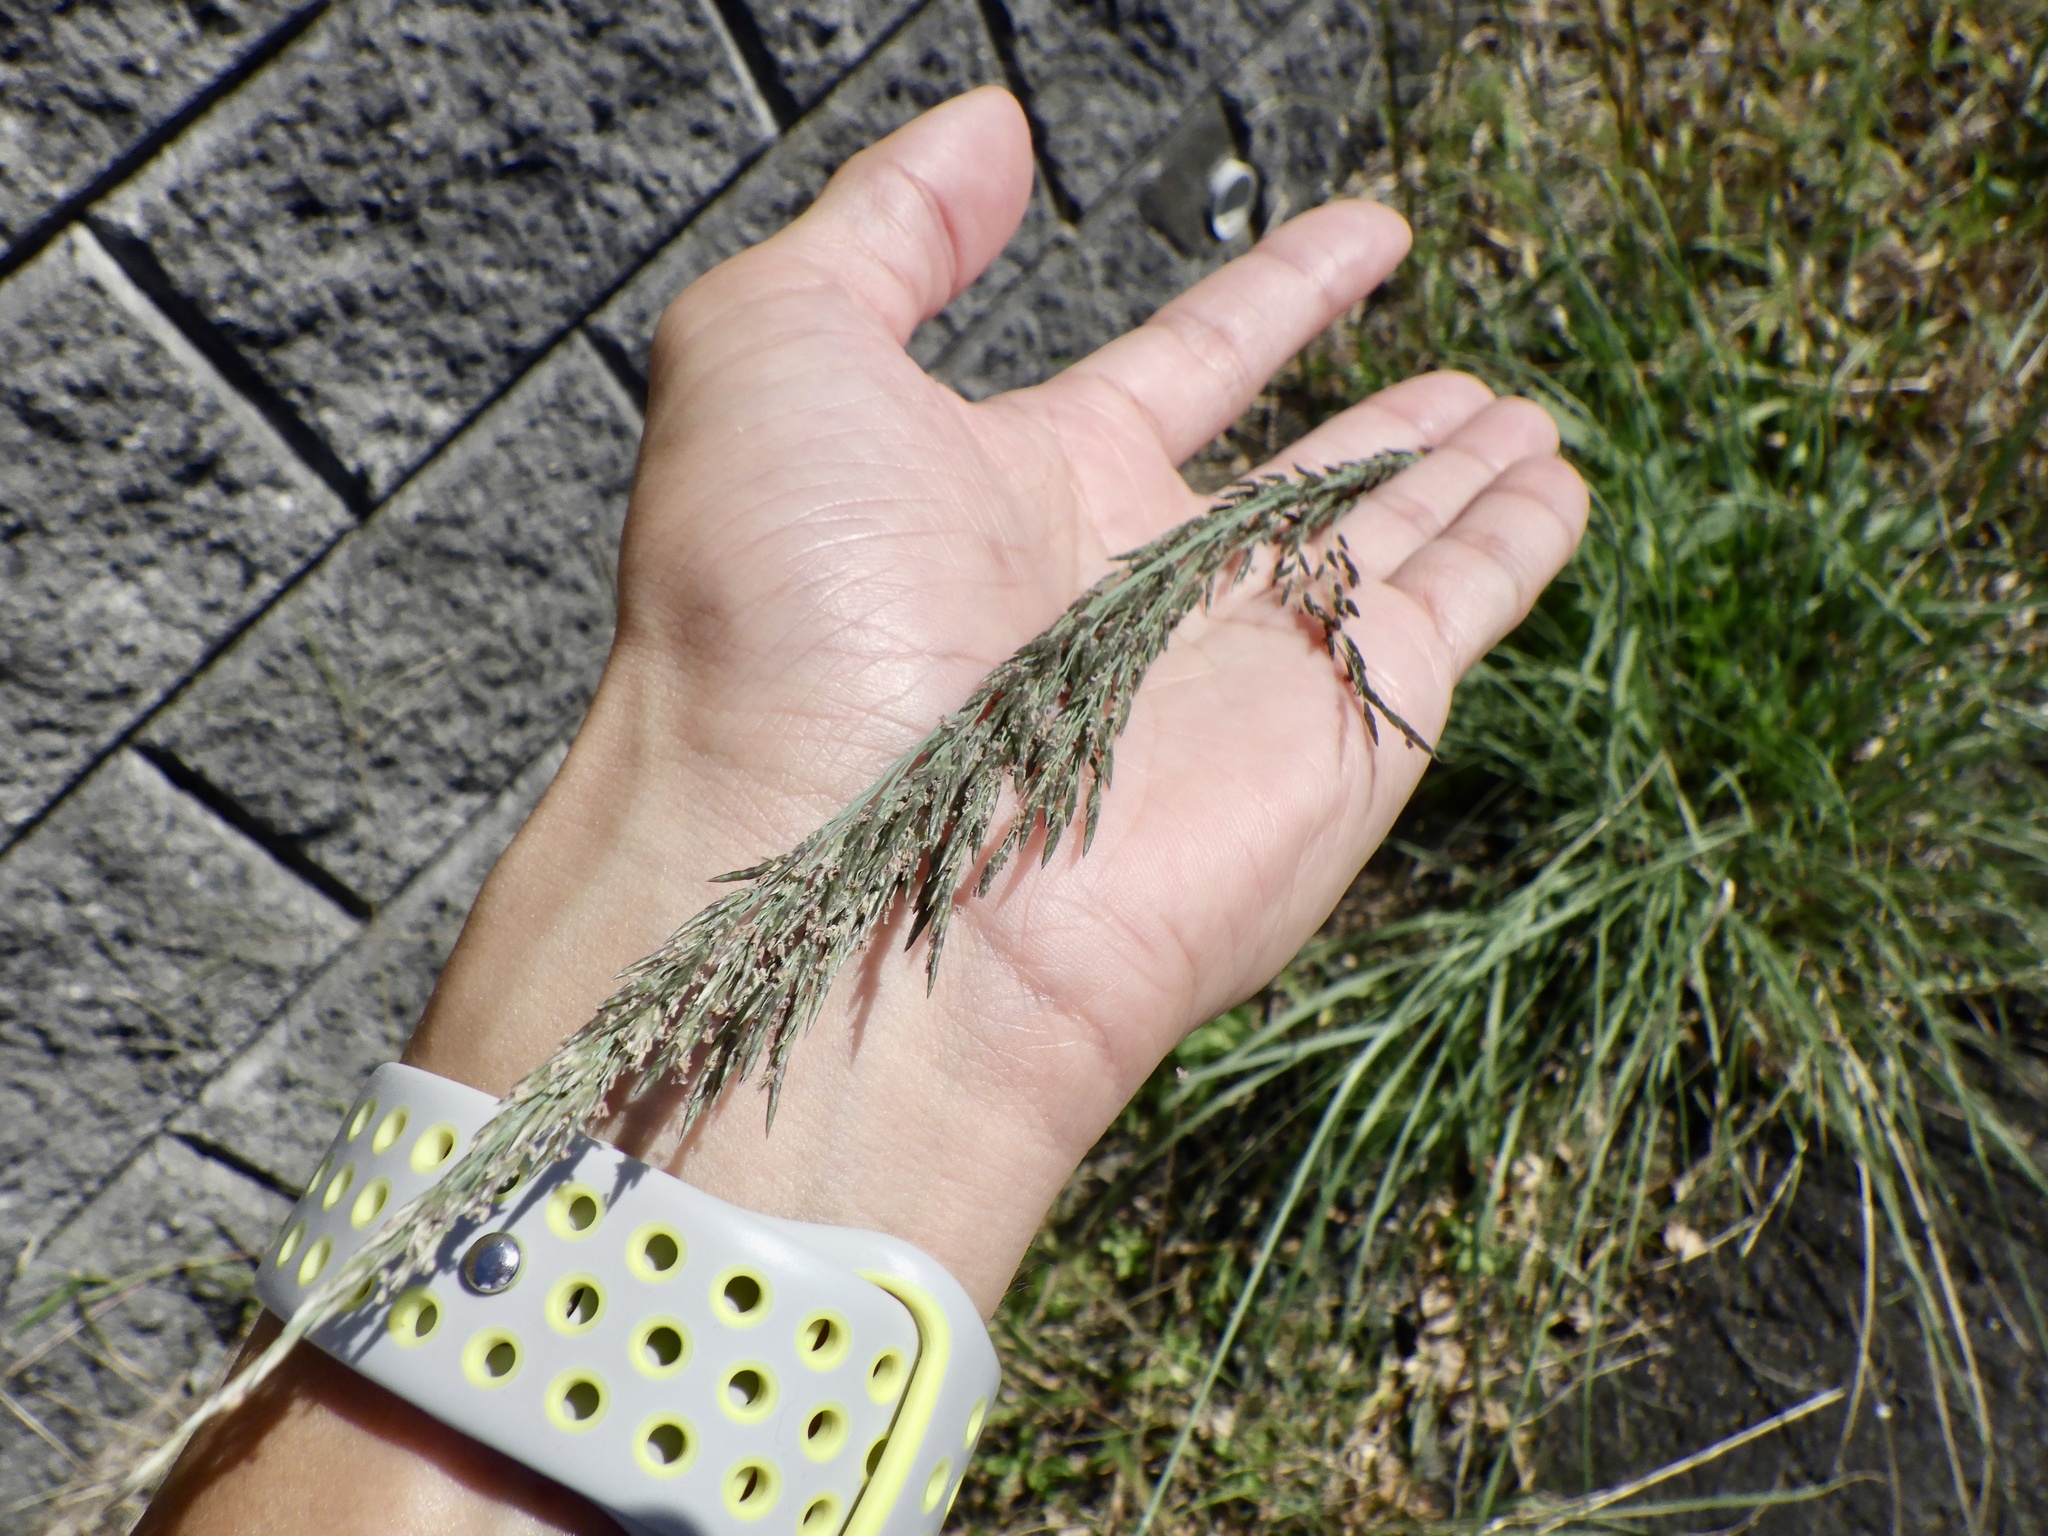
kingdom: Plantae
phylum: Tracheophyta
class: Liliopsida
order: Poales
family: Poaceae
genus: Eragrostis
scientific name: Eragrostis curvula
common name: African love-grass
